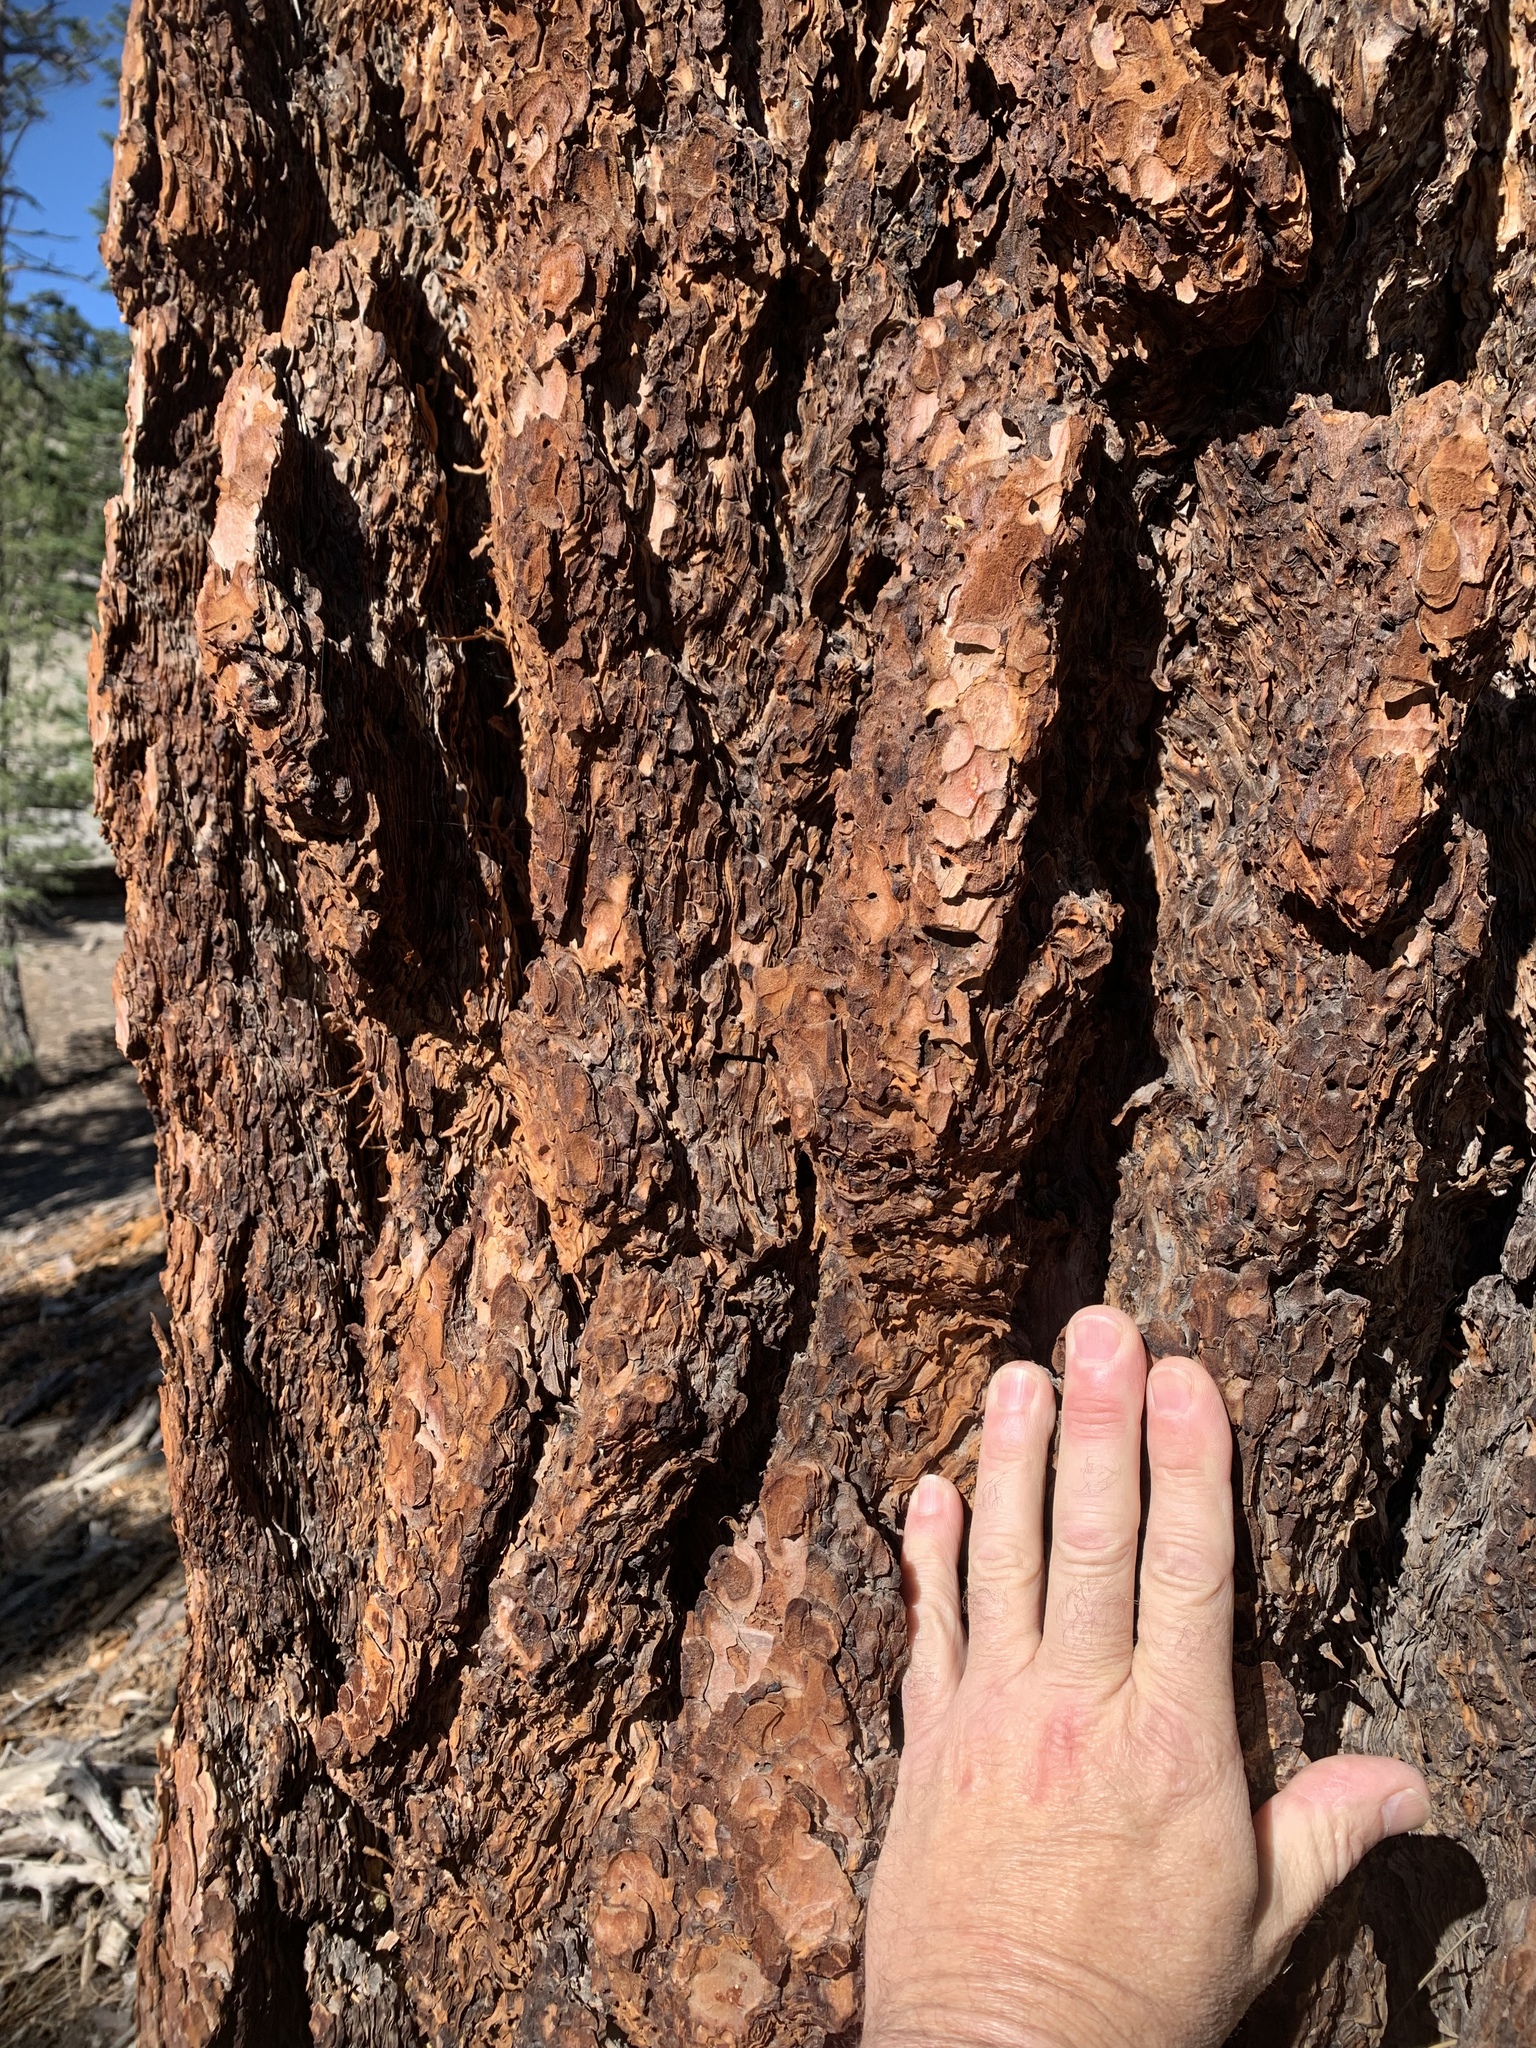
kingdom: Plantae
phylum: Tracheophyta
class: Pinopsida
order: Pinales
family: Pinaceae
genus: Pinus
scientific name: Pinus ponderosa
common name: Western yellow-pine
